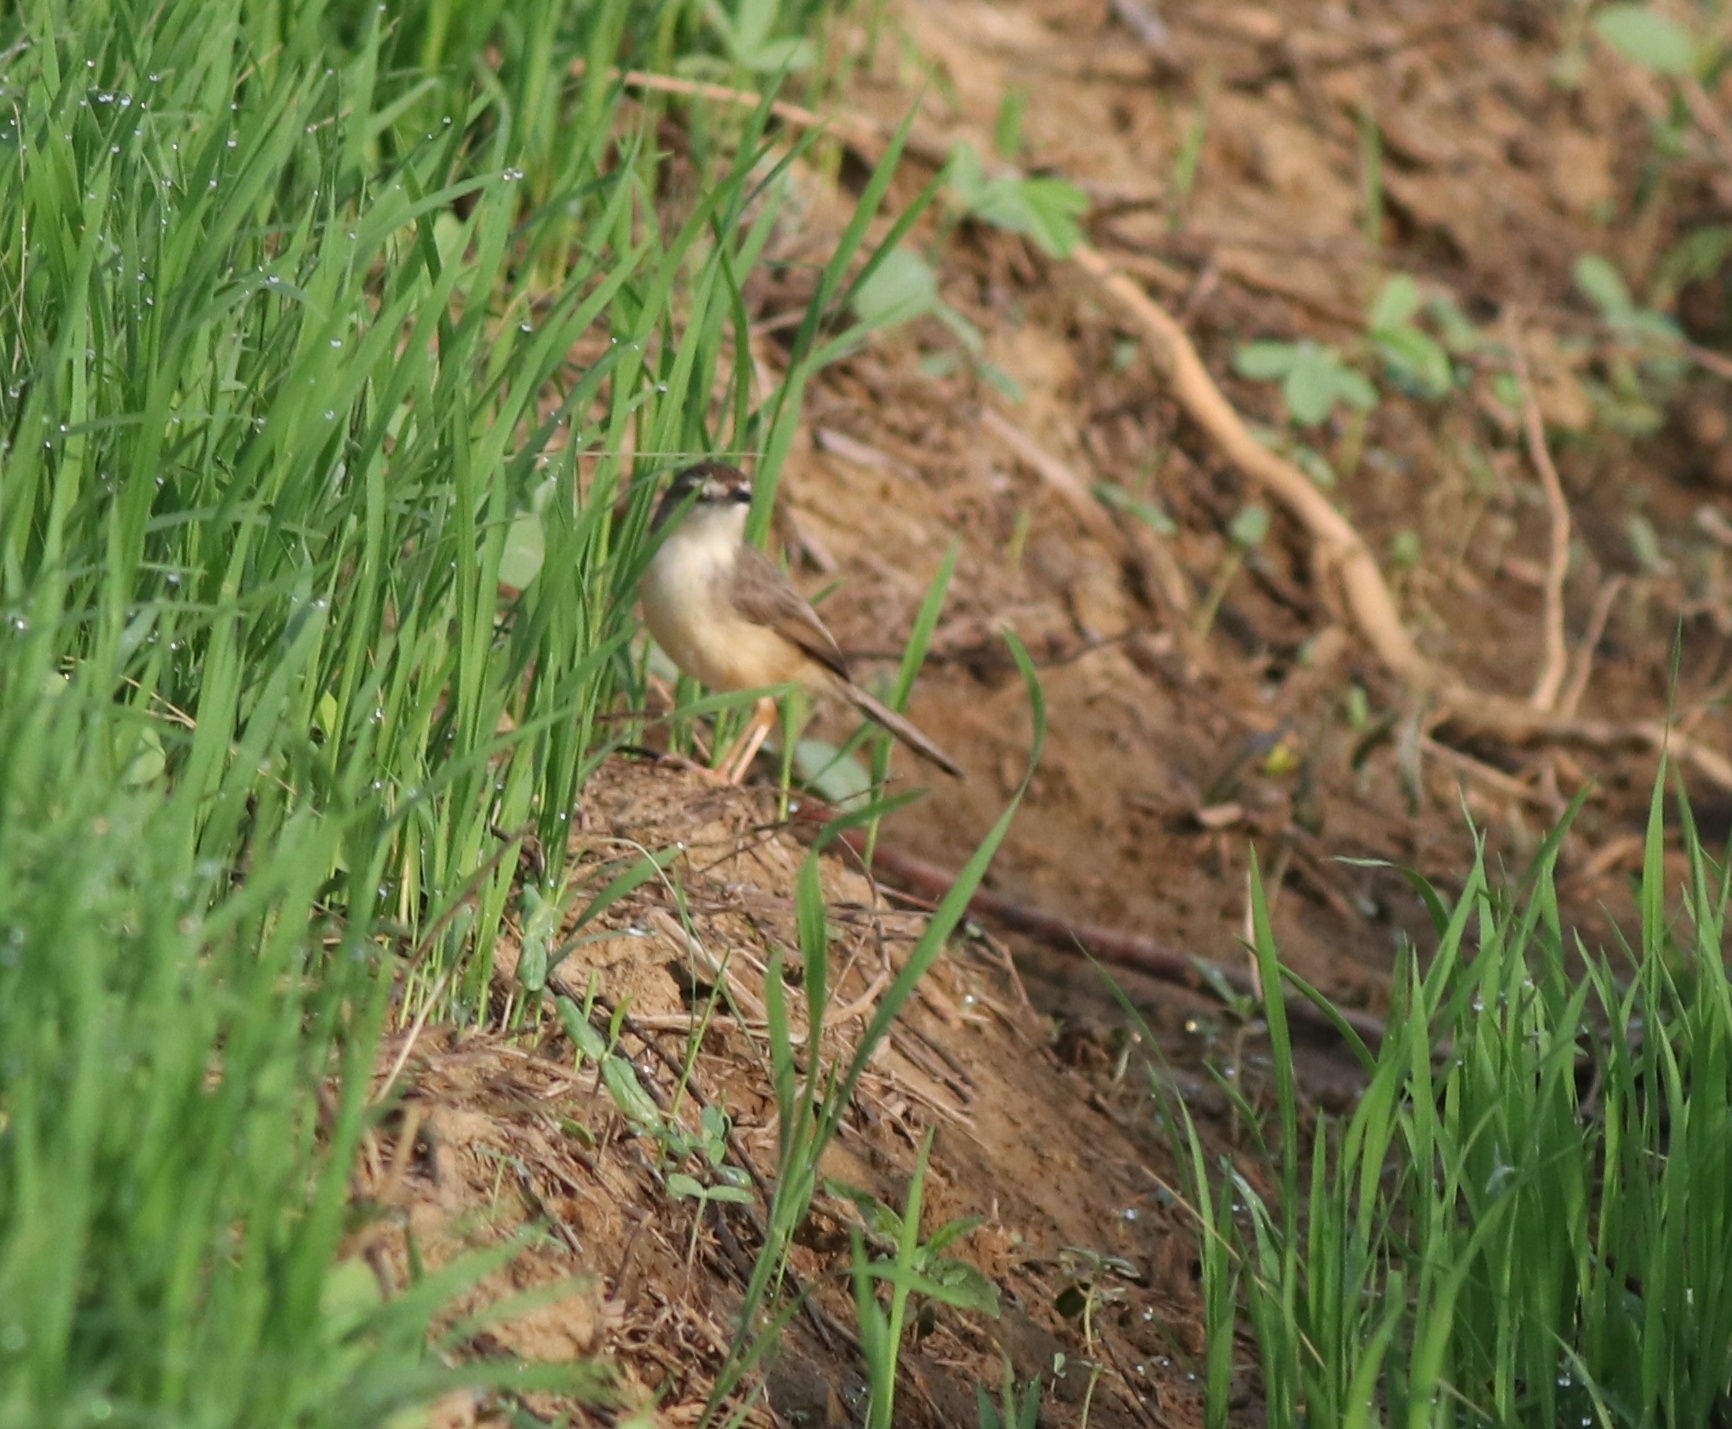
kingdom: Animalia
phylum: Chordata
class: Aves
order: Passeriformes
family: Cisticolidae
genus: Prinia
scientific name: Prinia inornata
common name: Plain prinia
